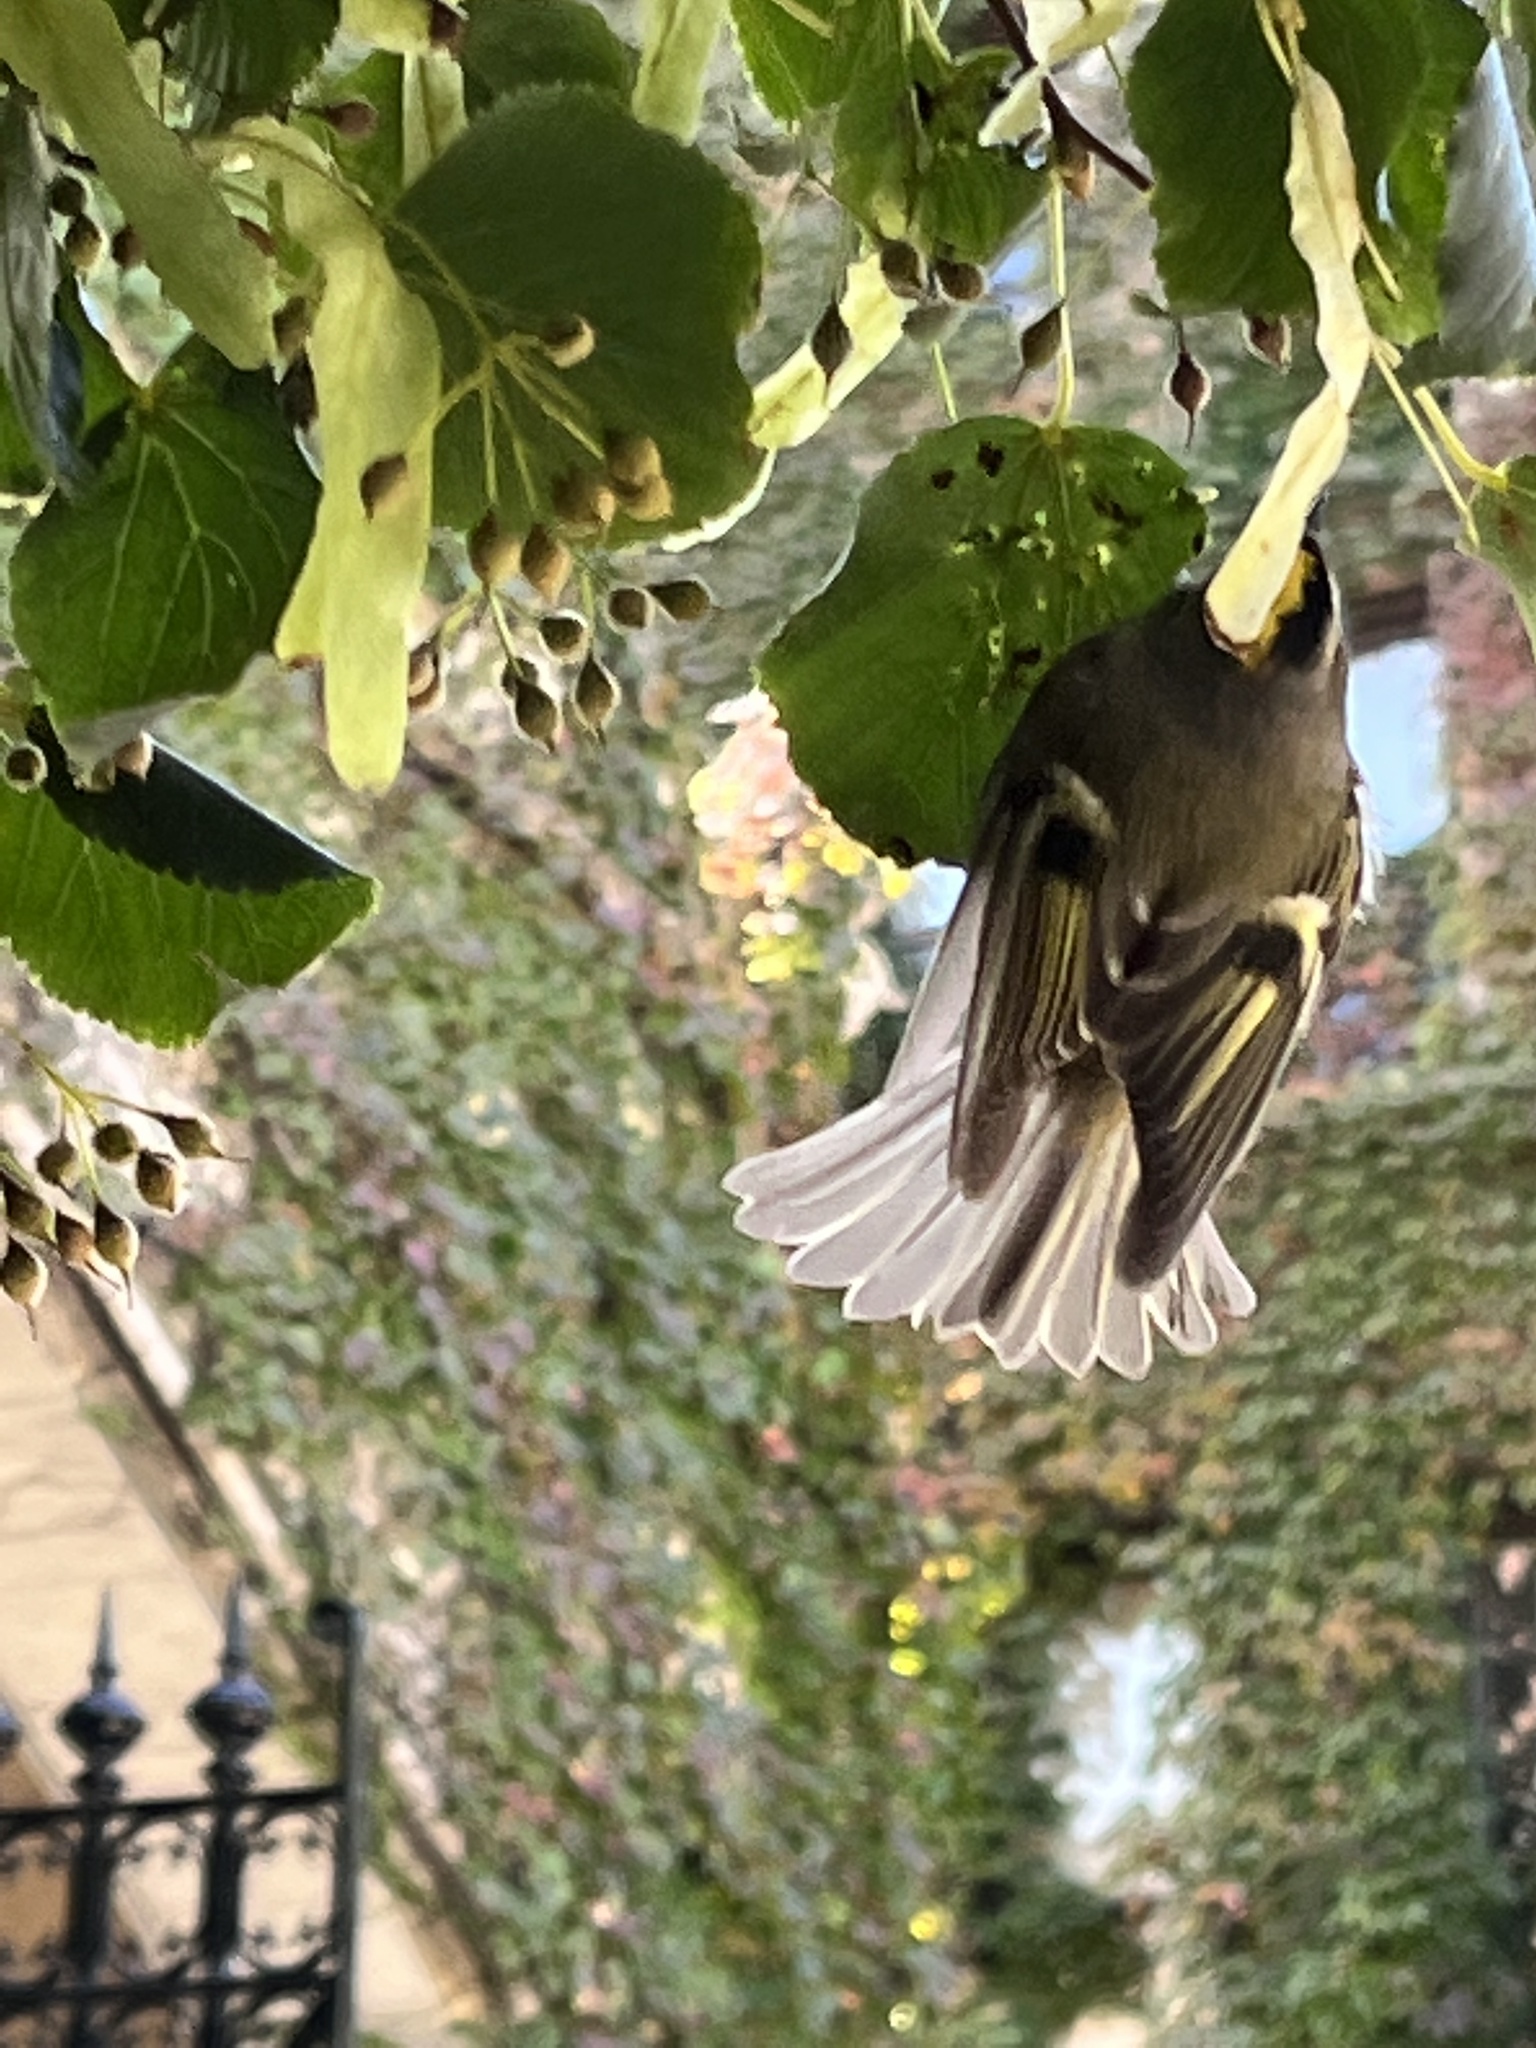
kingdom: Animalia
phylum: Chordata
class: Aves
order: Passeriformes
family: Regulidae
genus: Regulus
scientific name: Regulus satrapa
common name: Golden-crowned kinglet
